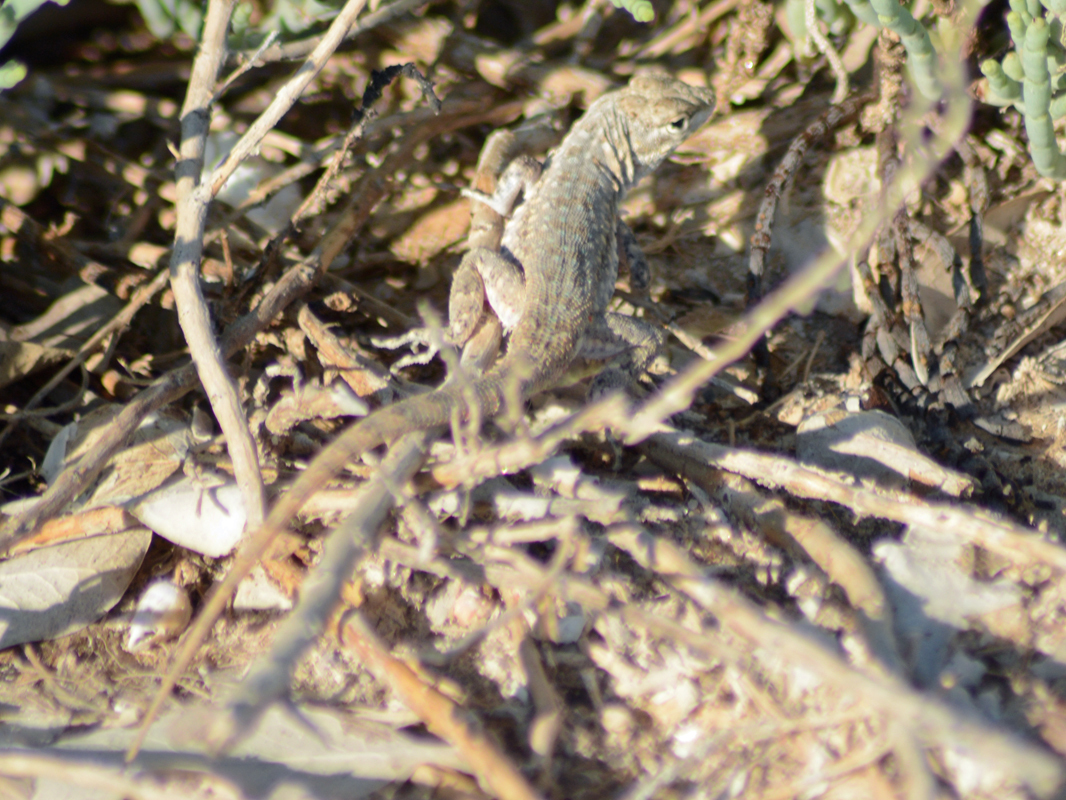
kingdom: Animalia
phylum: Chordata
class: Squamata
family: Phrynosomatidae
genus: Uta
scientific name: Uta stansburiana
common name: Side-blotched lizard
